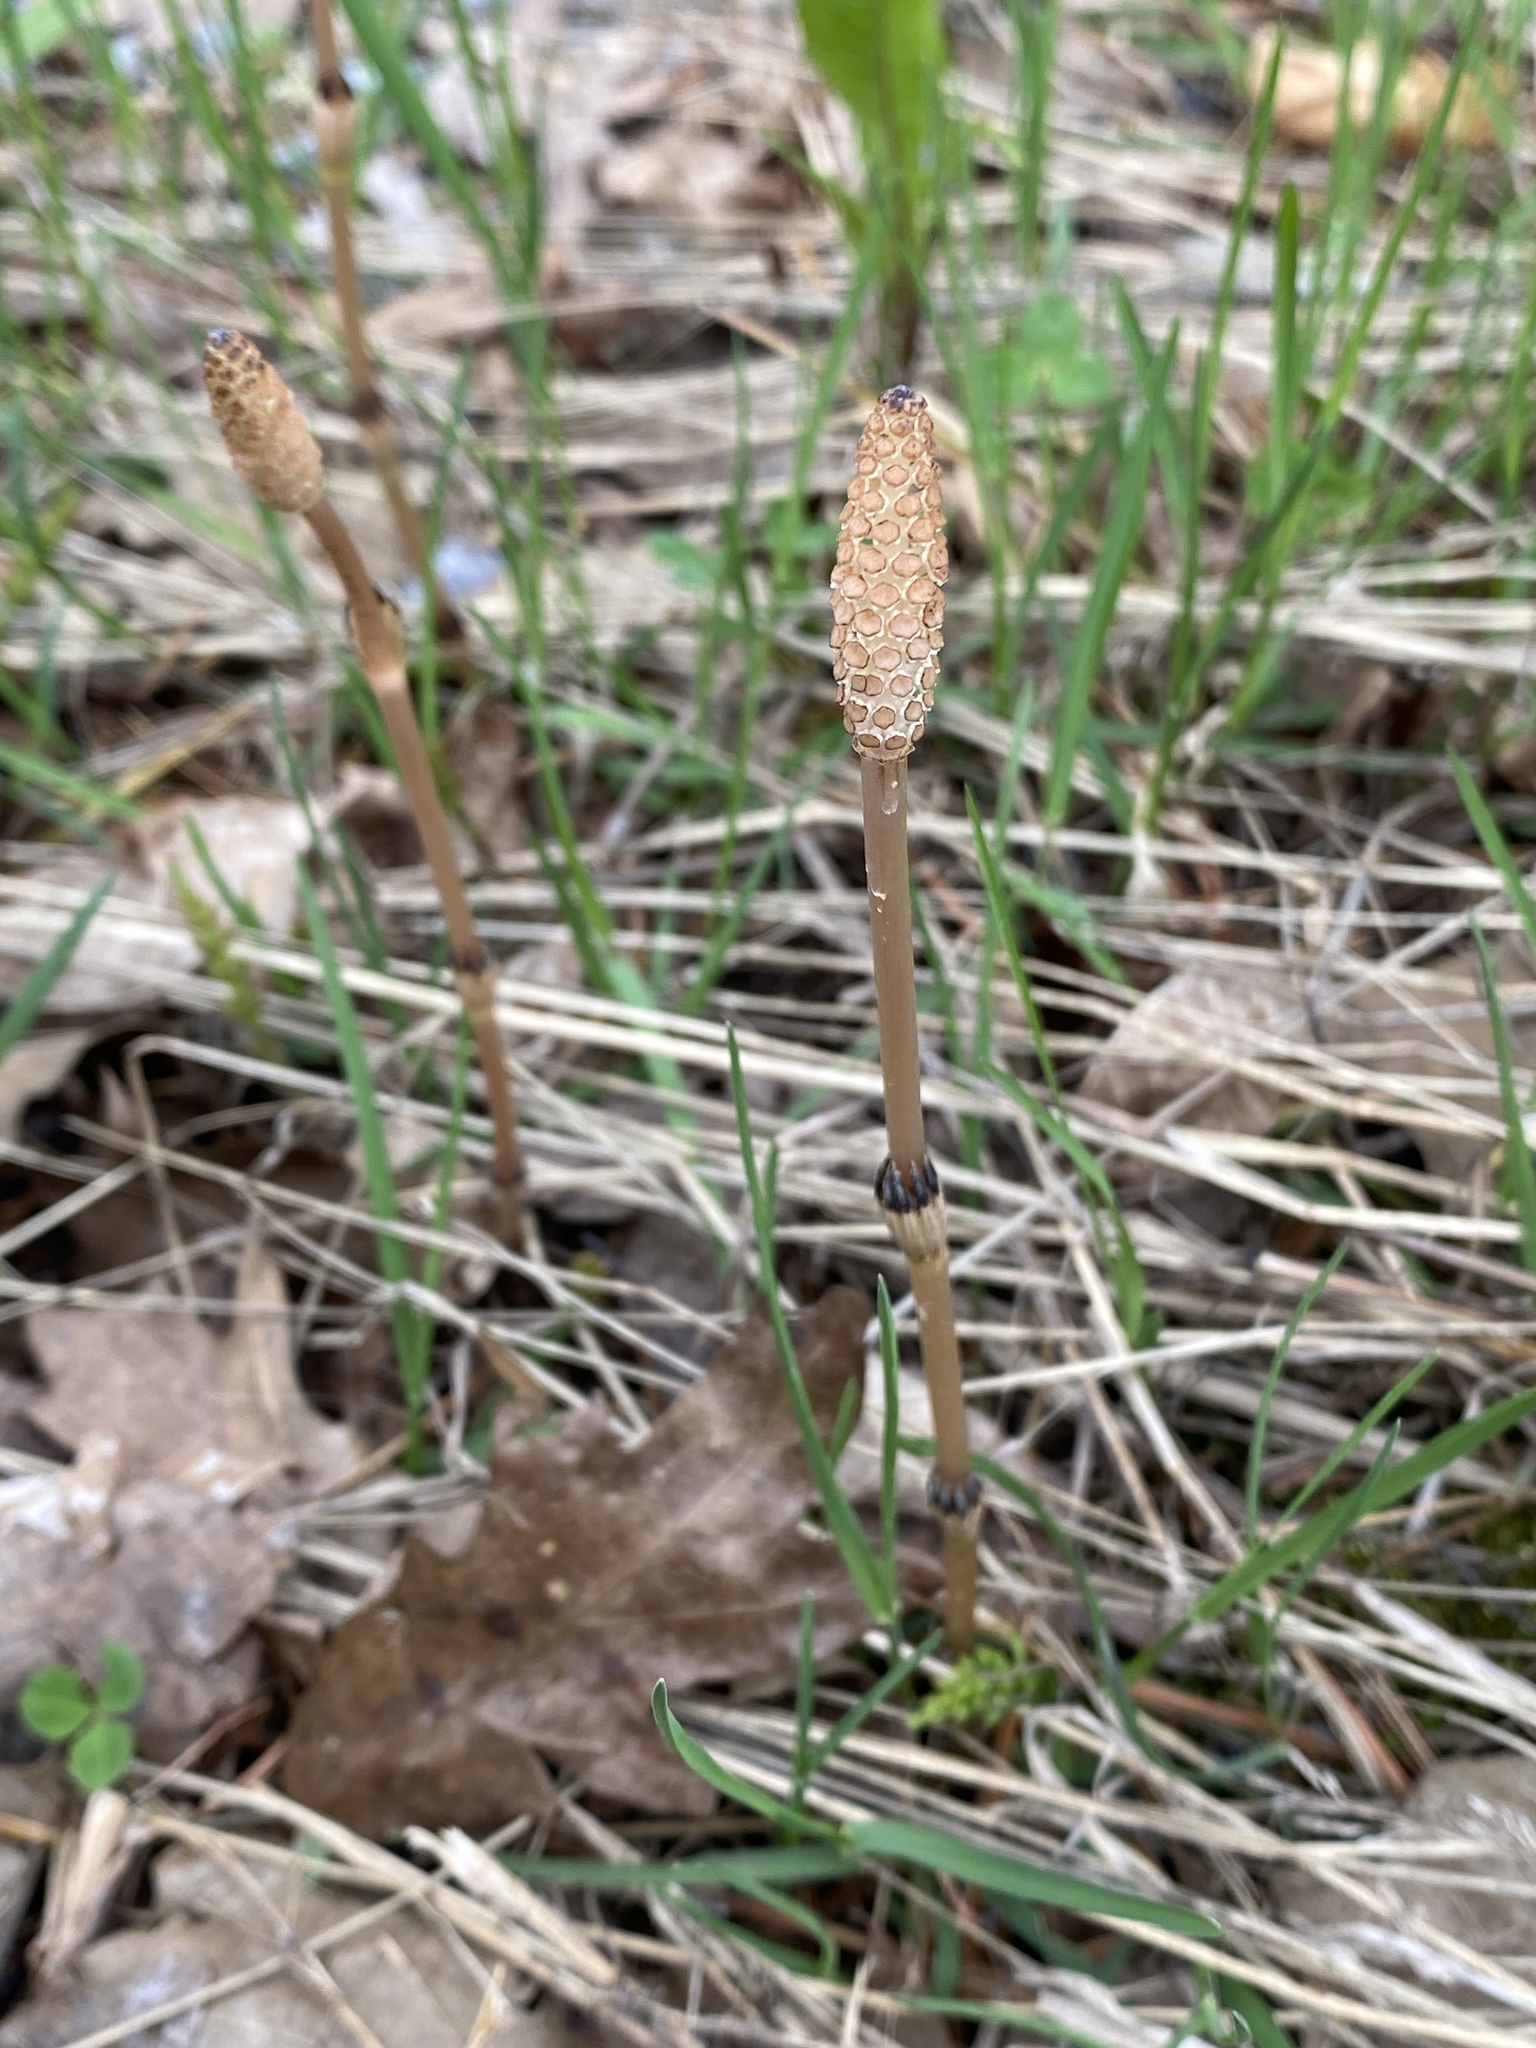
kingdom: Plantae
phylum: Tracheophyta
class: Polypodiopsida
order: Equisetales
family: Equisetaceae
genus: Equisetum
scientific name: Equisetum arvense
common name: Field horsetail
